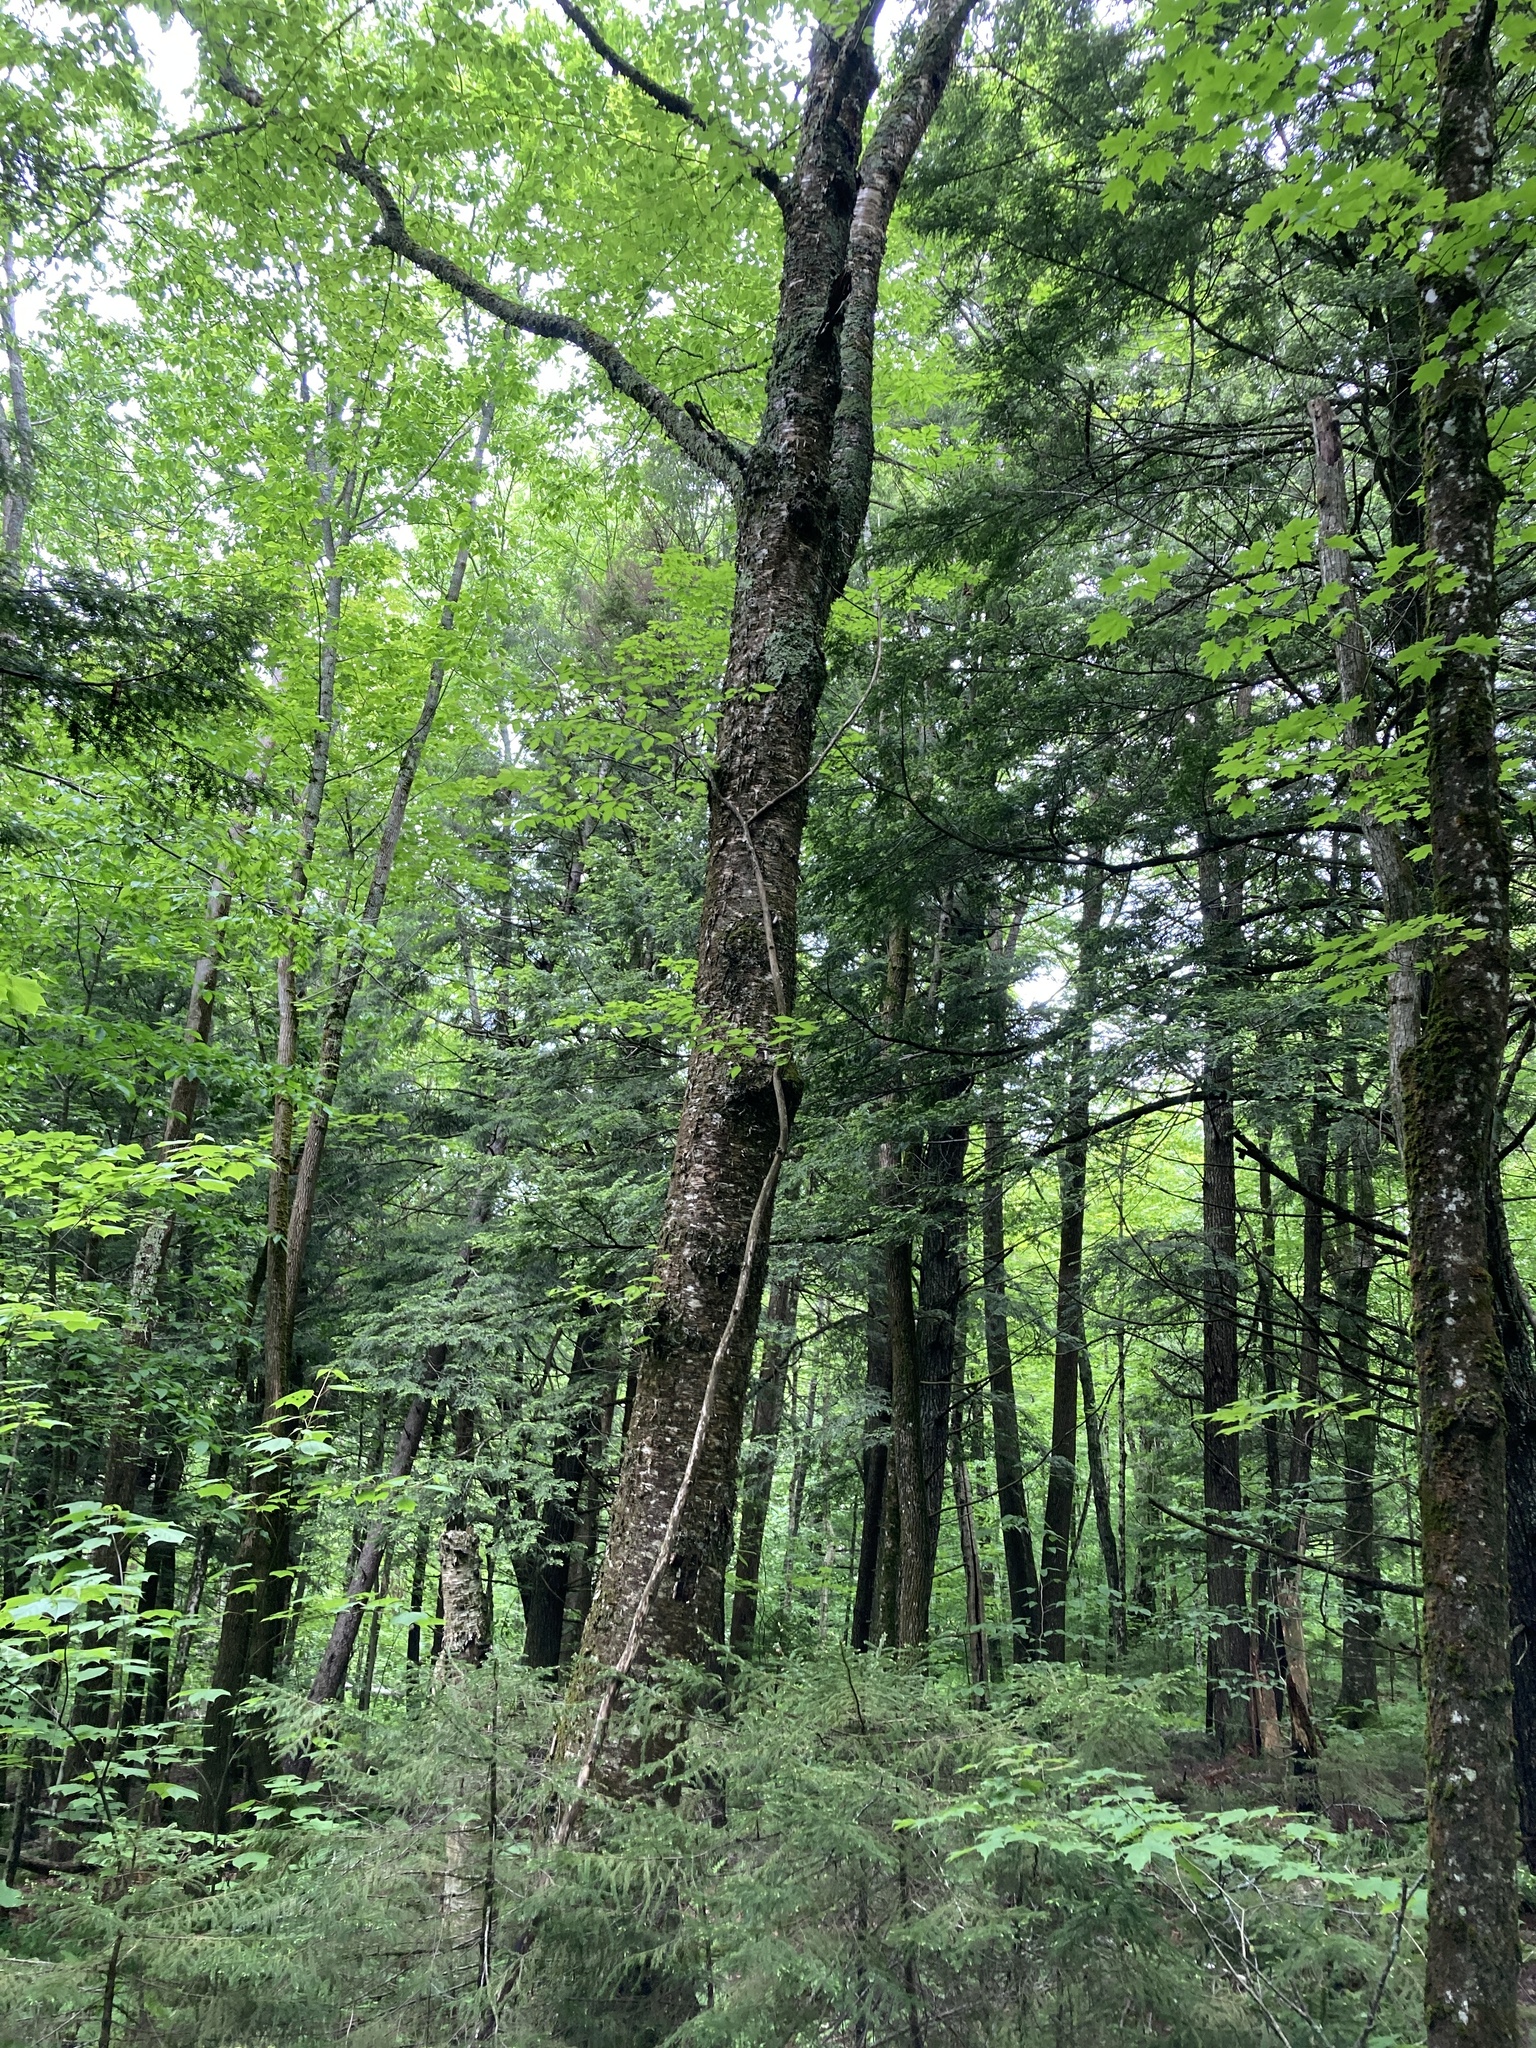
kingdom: Plantae
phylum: Tracheophyta
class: Magnoliopsida
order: Fagales
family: Betulaceae
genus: Betula
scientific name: Betula alleghaniensis
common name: Yellow birch
